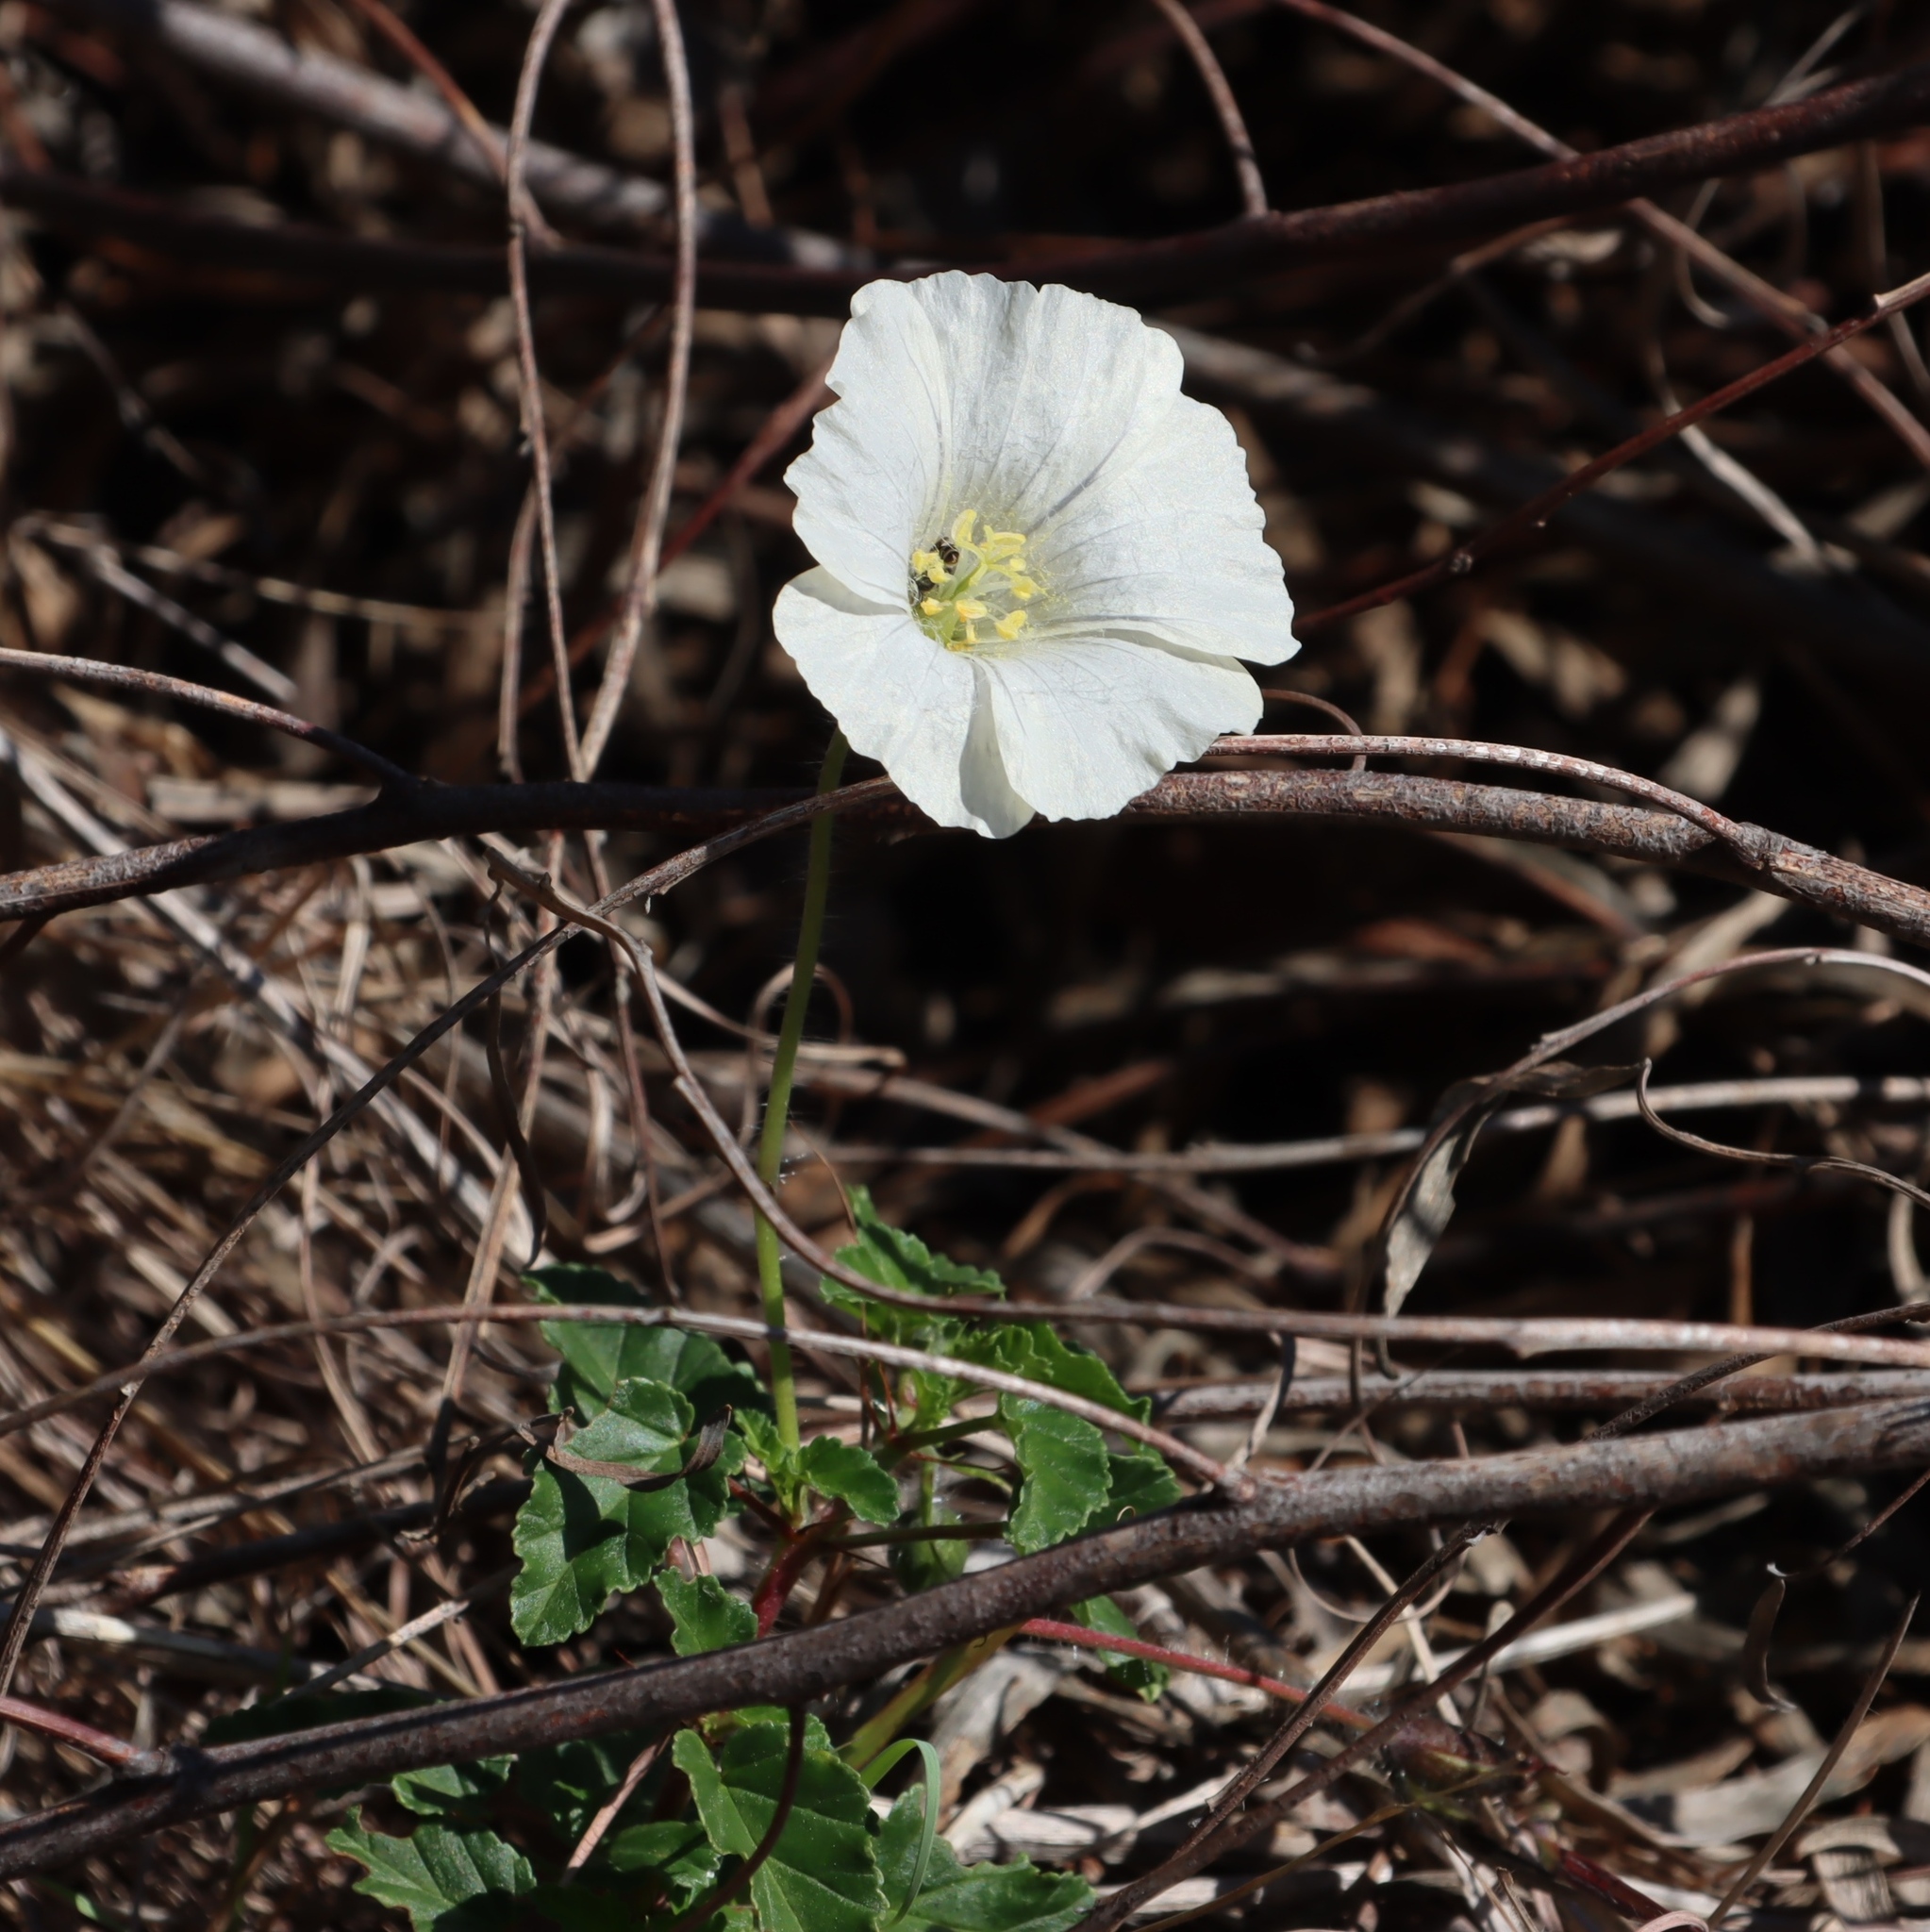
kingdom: Plantae
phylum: Tracheophyta
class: Magnoliopsida
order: Geraniales
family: Geraniaceae
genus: Monsonia
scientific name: Monsonia emarginata
